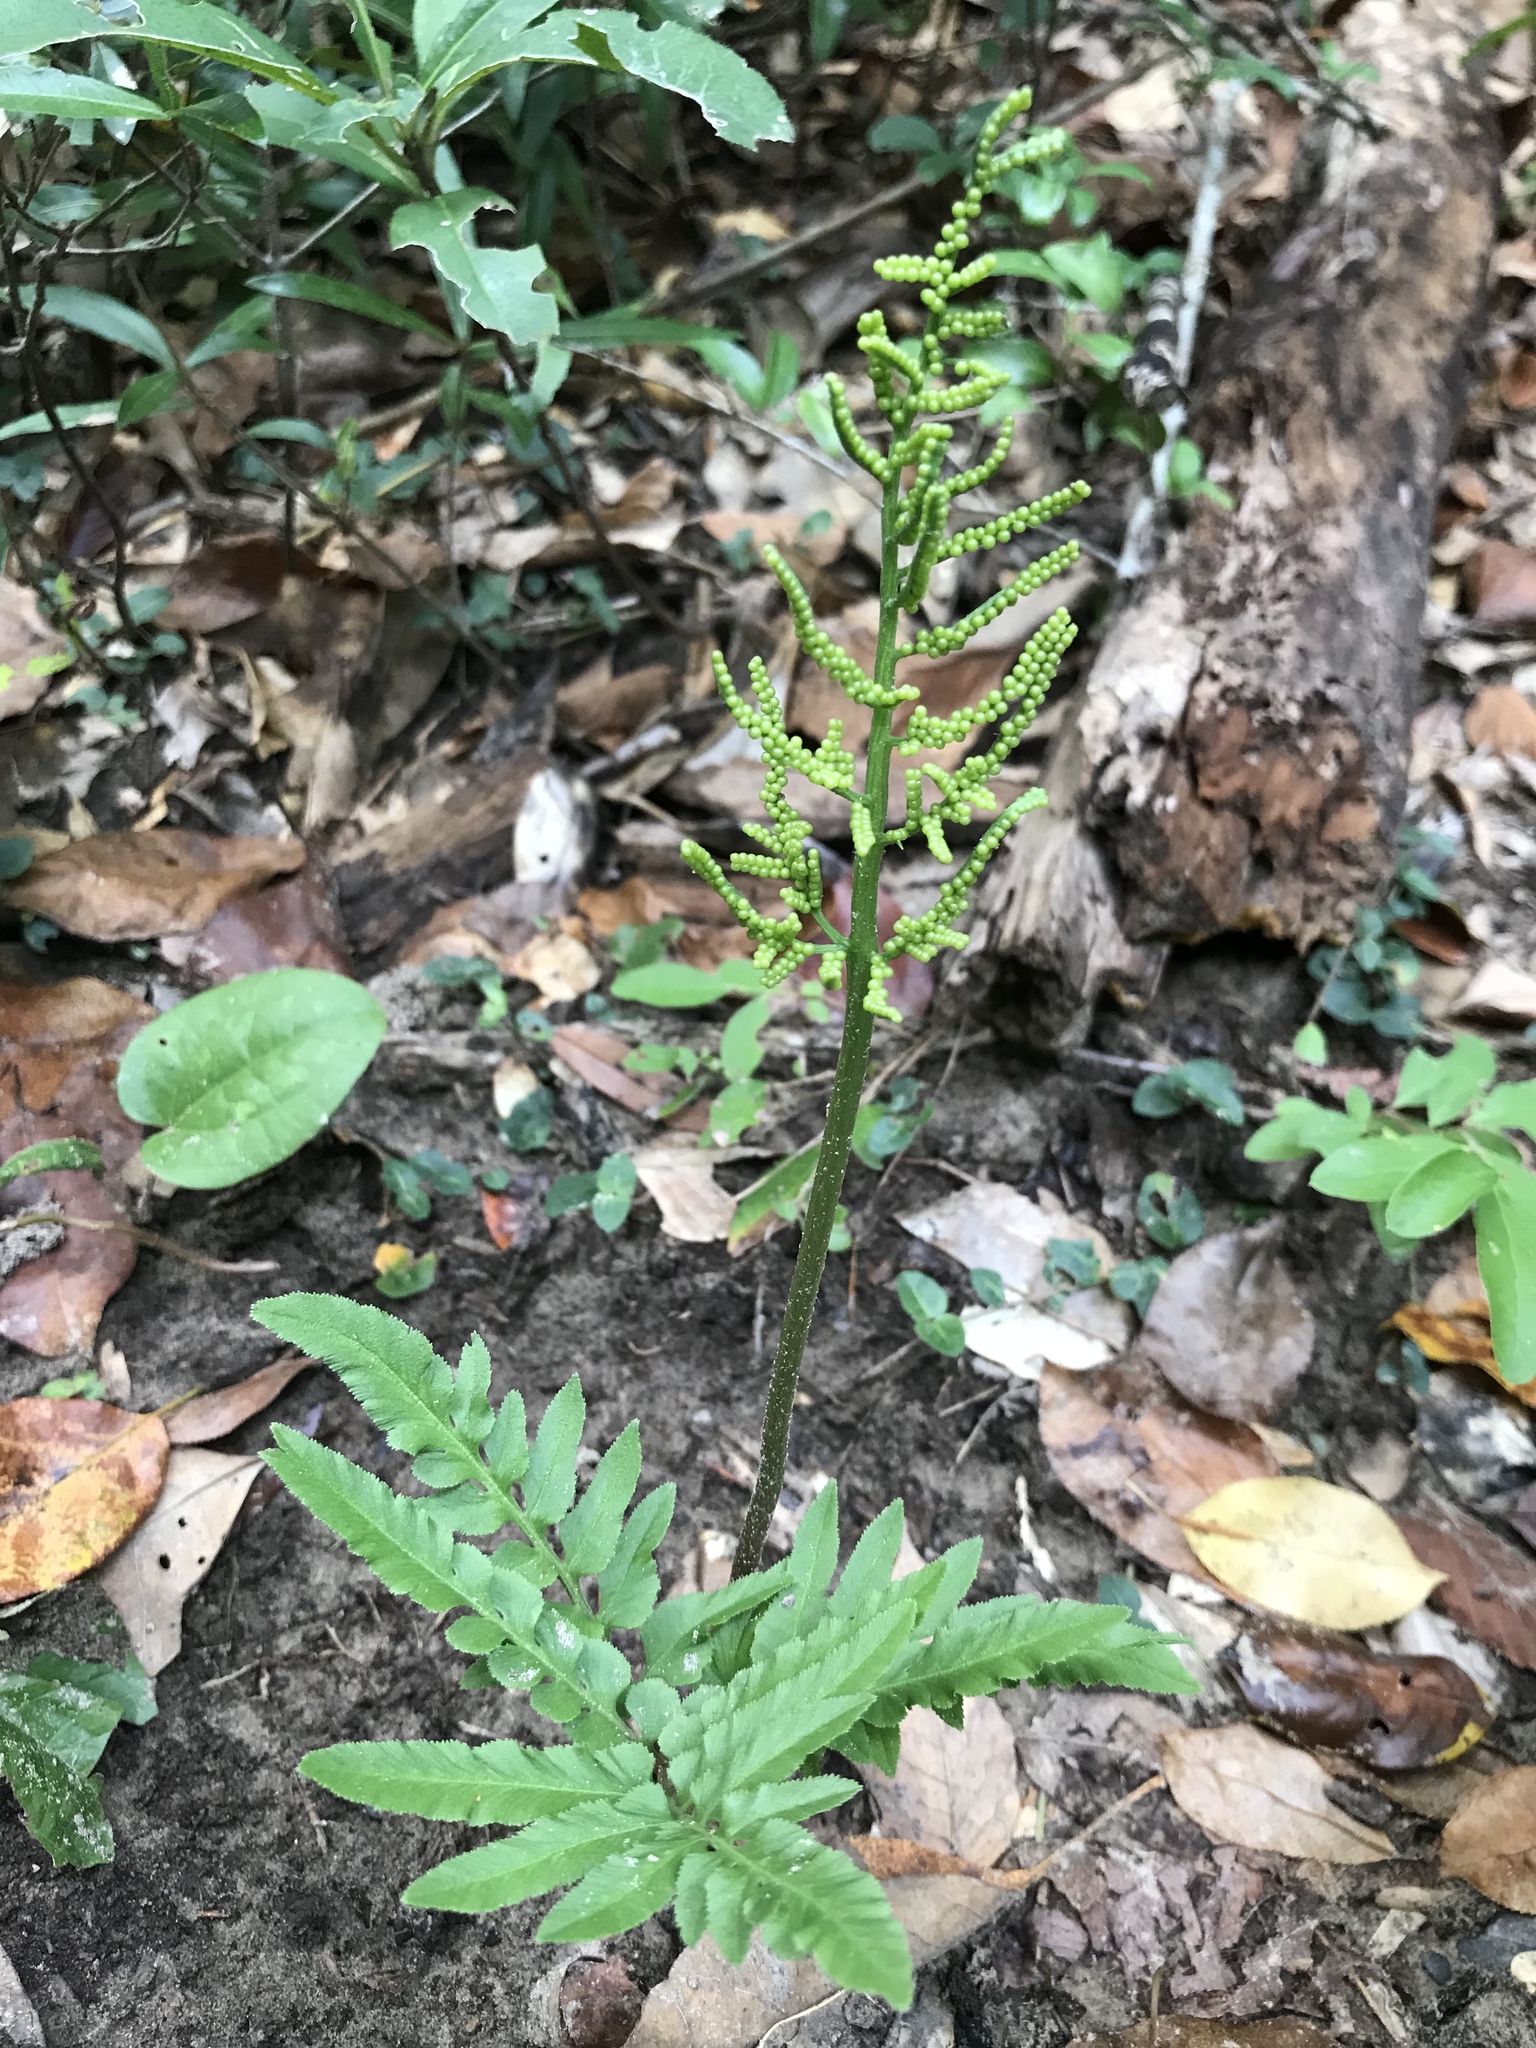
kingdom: Plantae
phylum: Tracheophyta
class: Polypodiopsida
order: Ophioglossales
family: Ophioglossaceae
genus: Sceptridium
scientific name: Sceptridium biternatum
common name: Sparse-lobed grapefern
